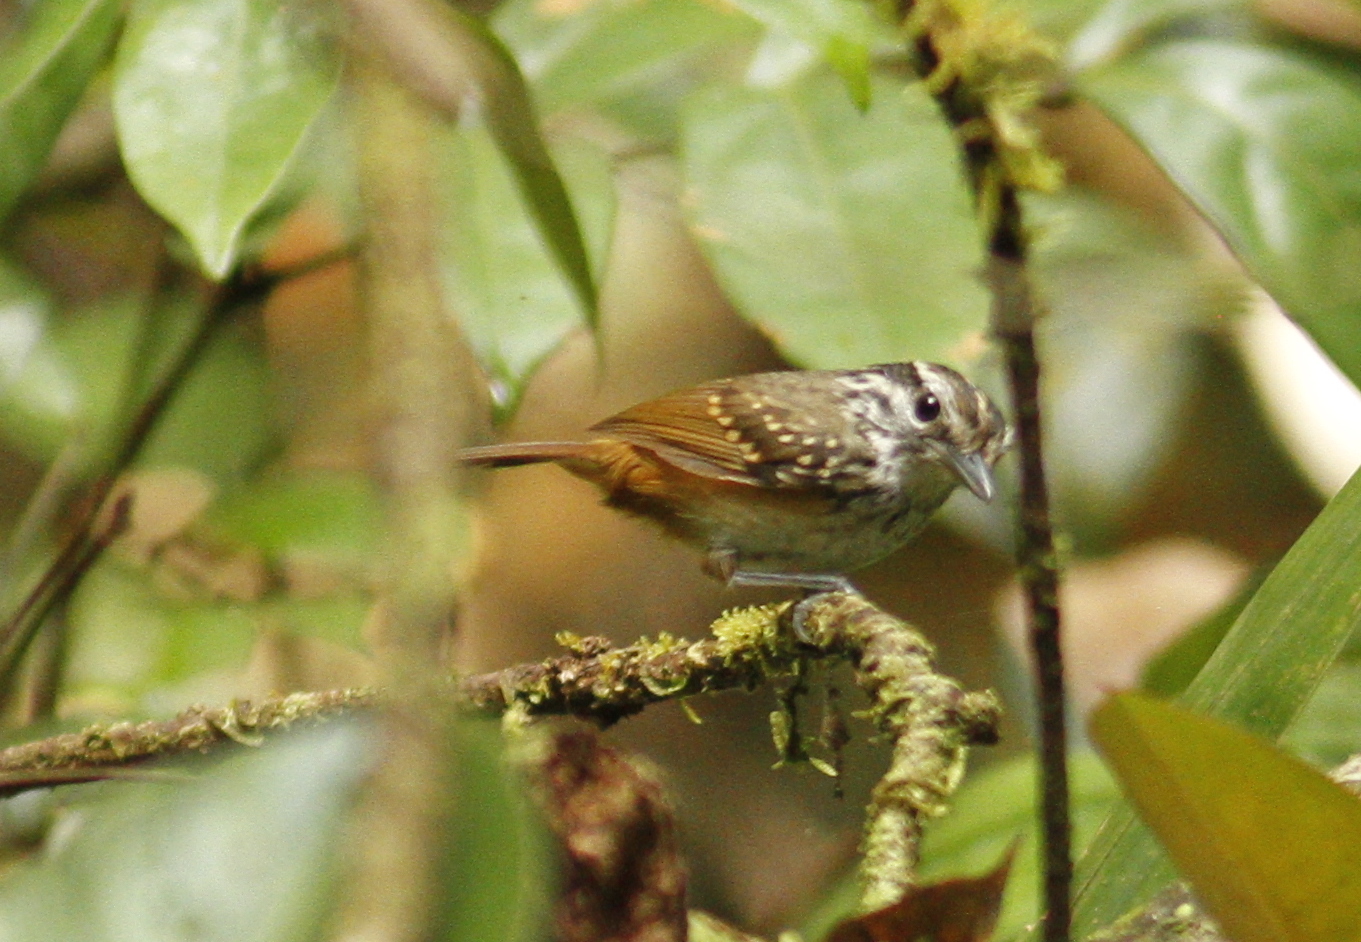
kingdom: Animalia
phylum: Chordata
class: Aves
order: Passeriformes
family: Thamnophilidae
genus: Hypocnemis
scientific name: Hypocnemis cantator
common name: Guianan warbling-antbird
